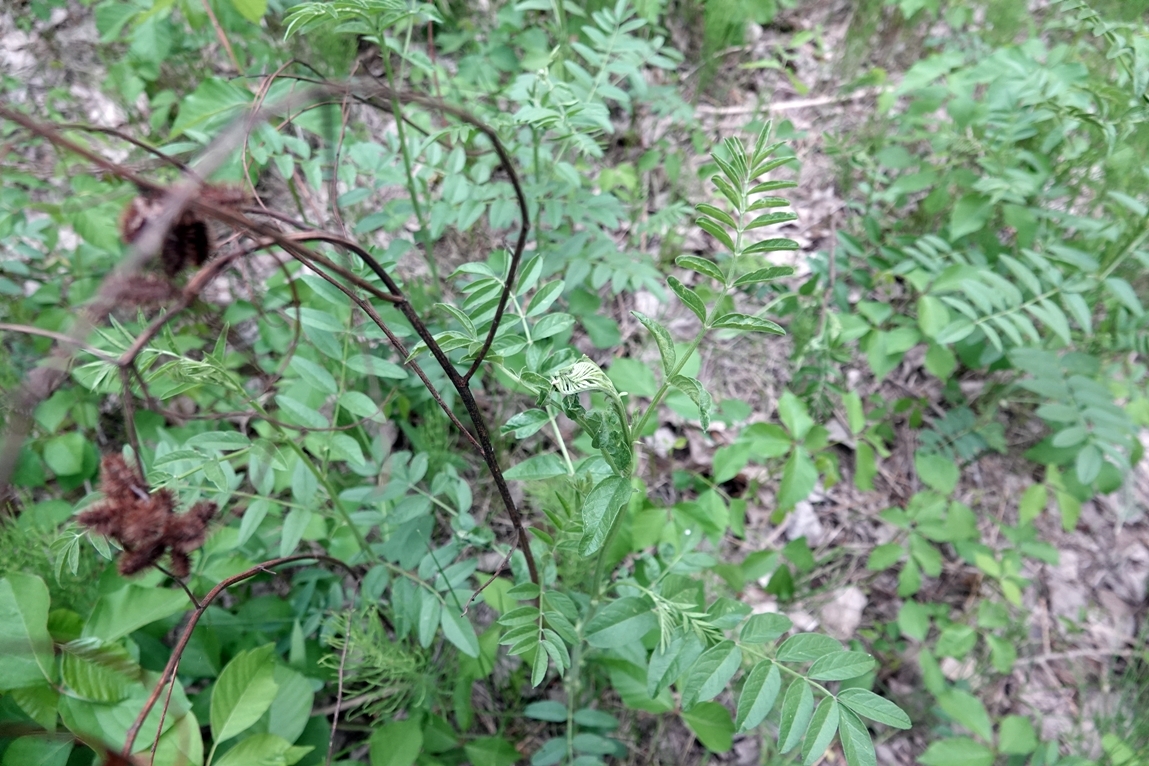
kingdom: Plantae
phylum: Tracheophyta
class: Magnoliopsida
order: Fabales
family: Fabaceae
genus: Glycyrrhiza
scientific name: Glycyrrhiza lepidota
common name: American liquorice
